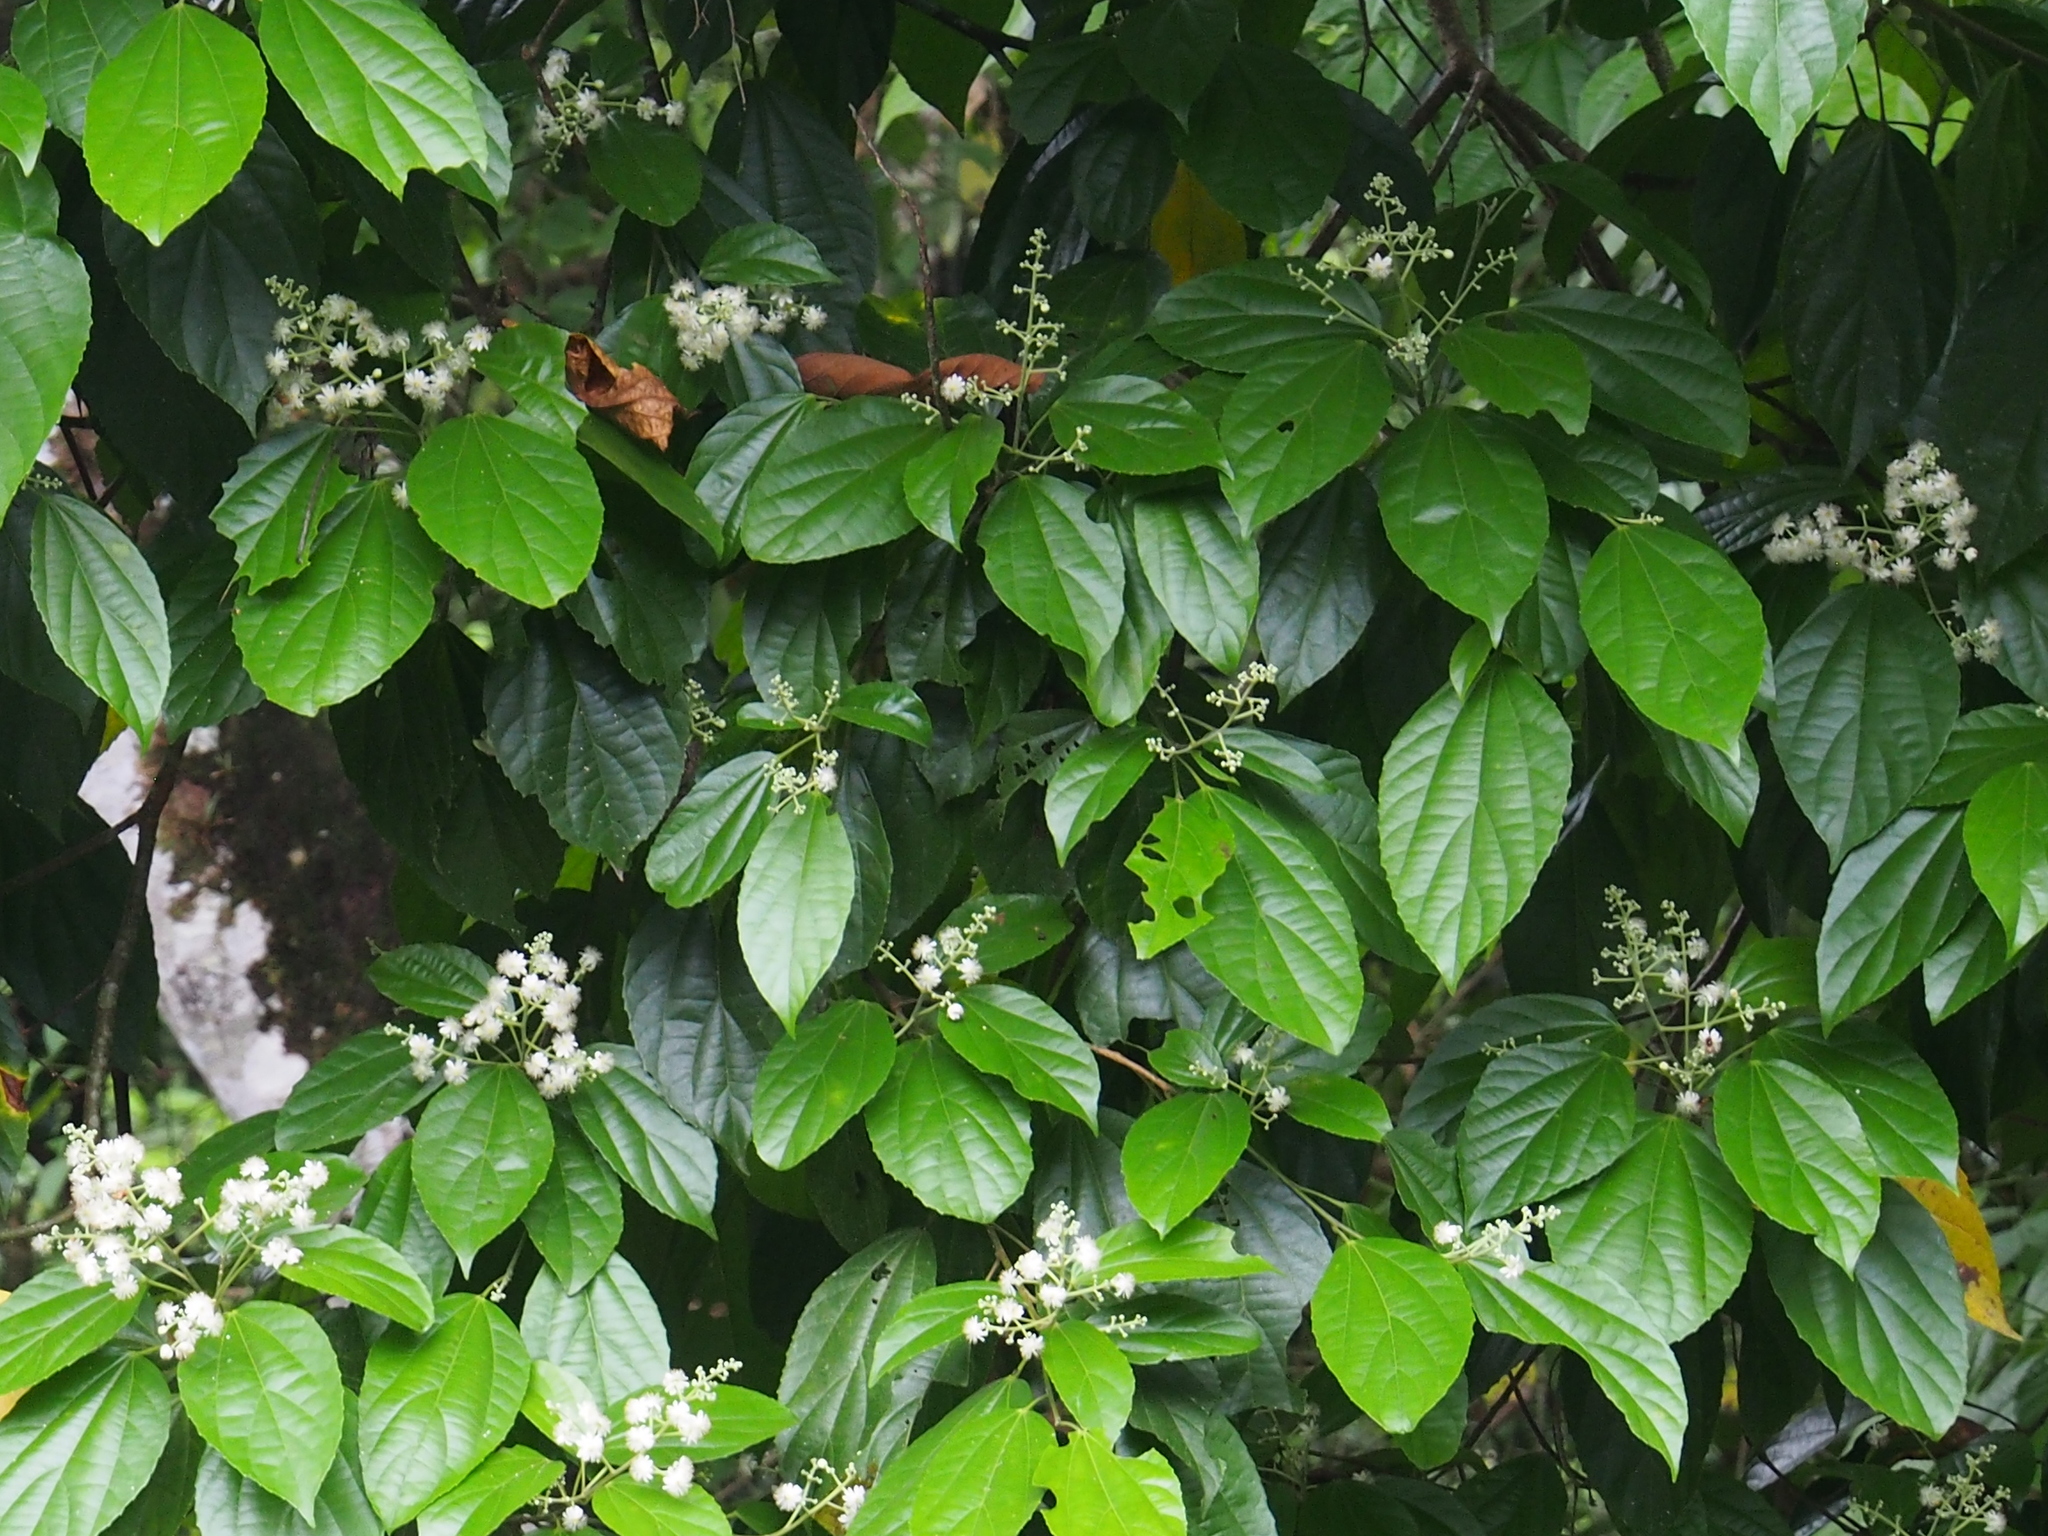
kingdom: Plantae
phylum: Tracheophyta
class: Magnoliopsida
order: Malpighiales
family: Salicaceae
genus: Hasseltia
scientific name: Hasseltia floribunda
